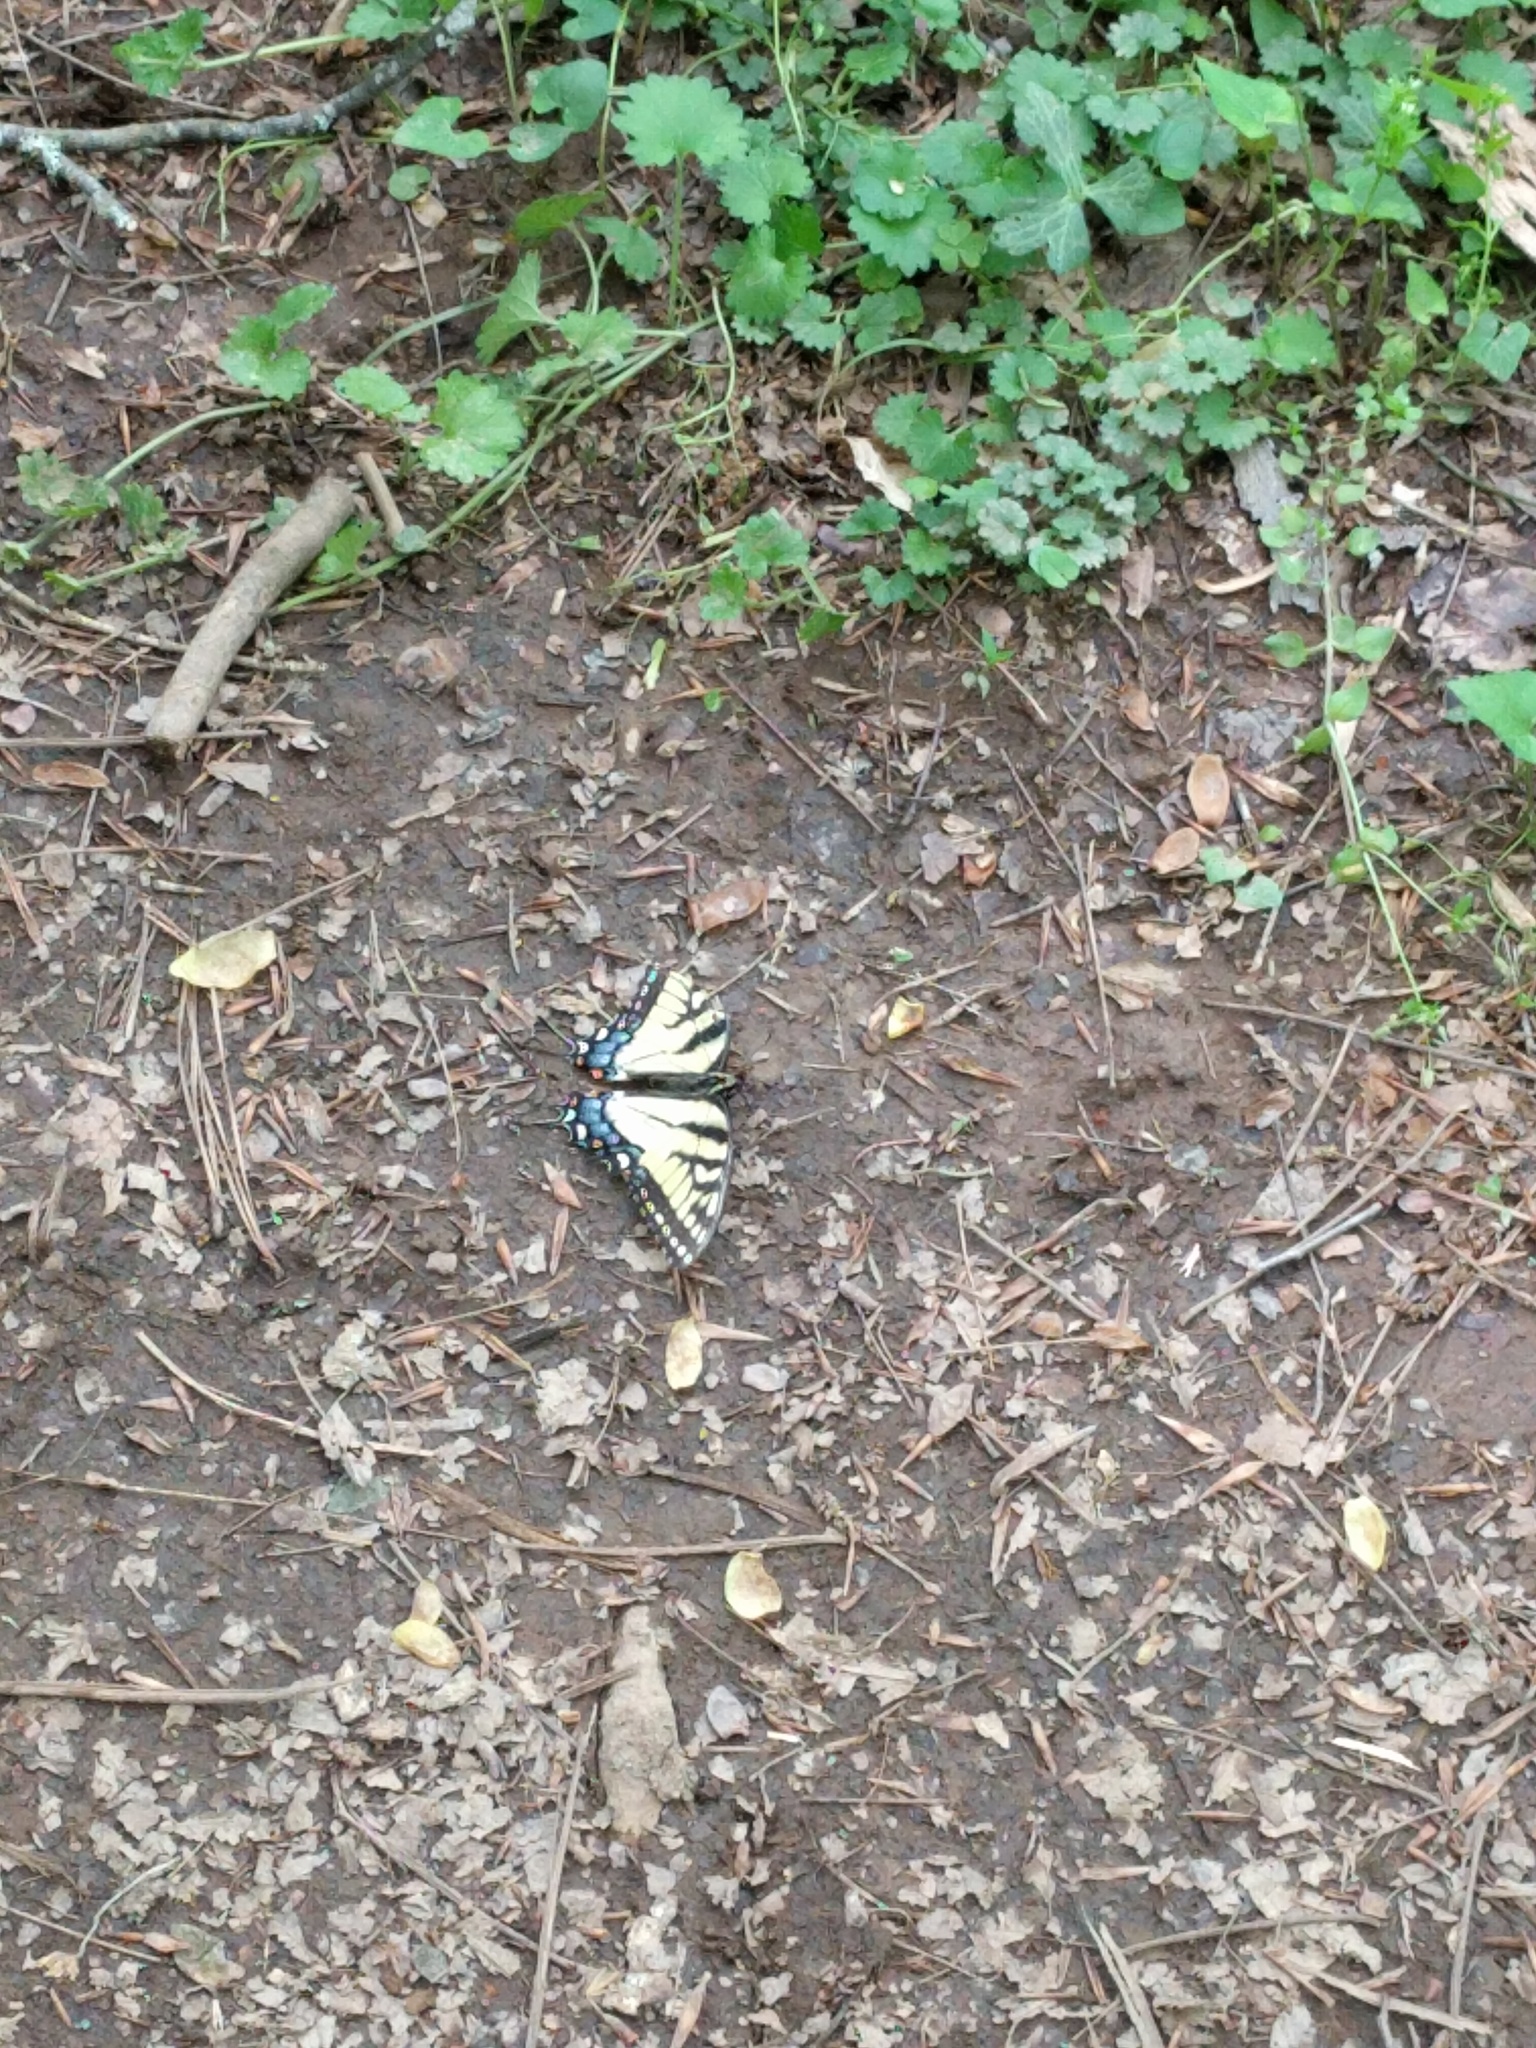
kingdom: Animalia
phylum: Arthropoda
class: Insecta
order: Lepidoptera
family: Papilionidae
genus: Papilio
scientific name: Papilio glaucus
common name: Tiger swallowtail
